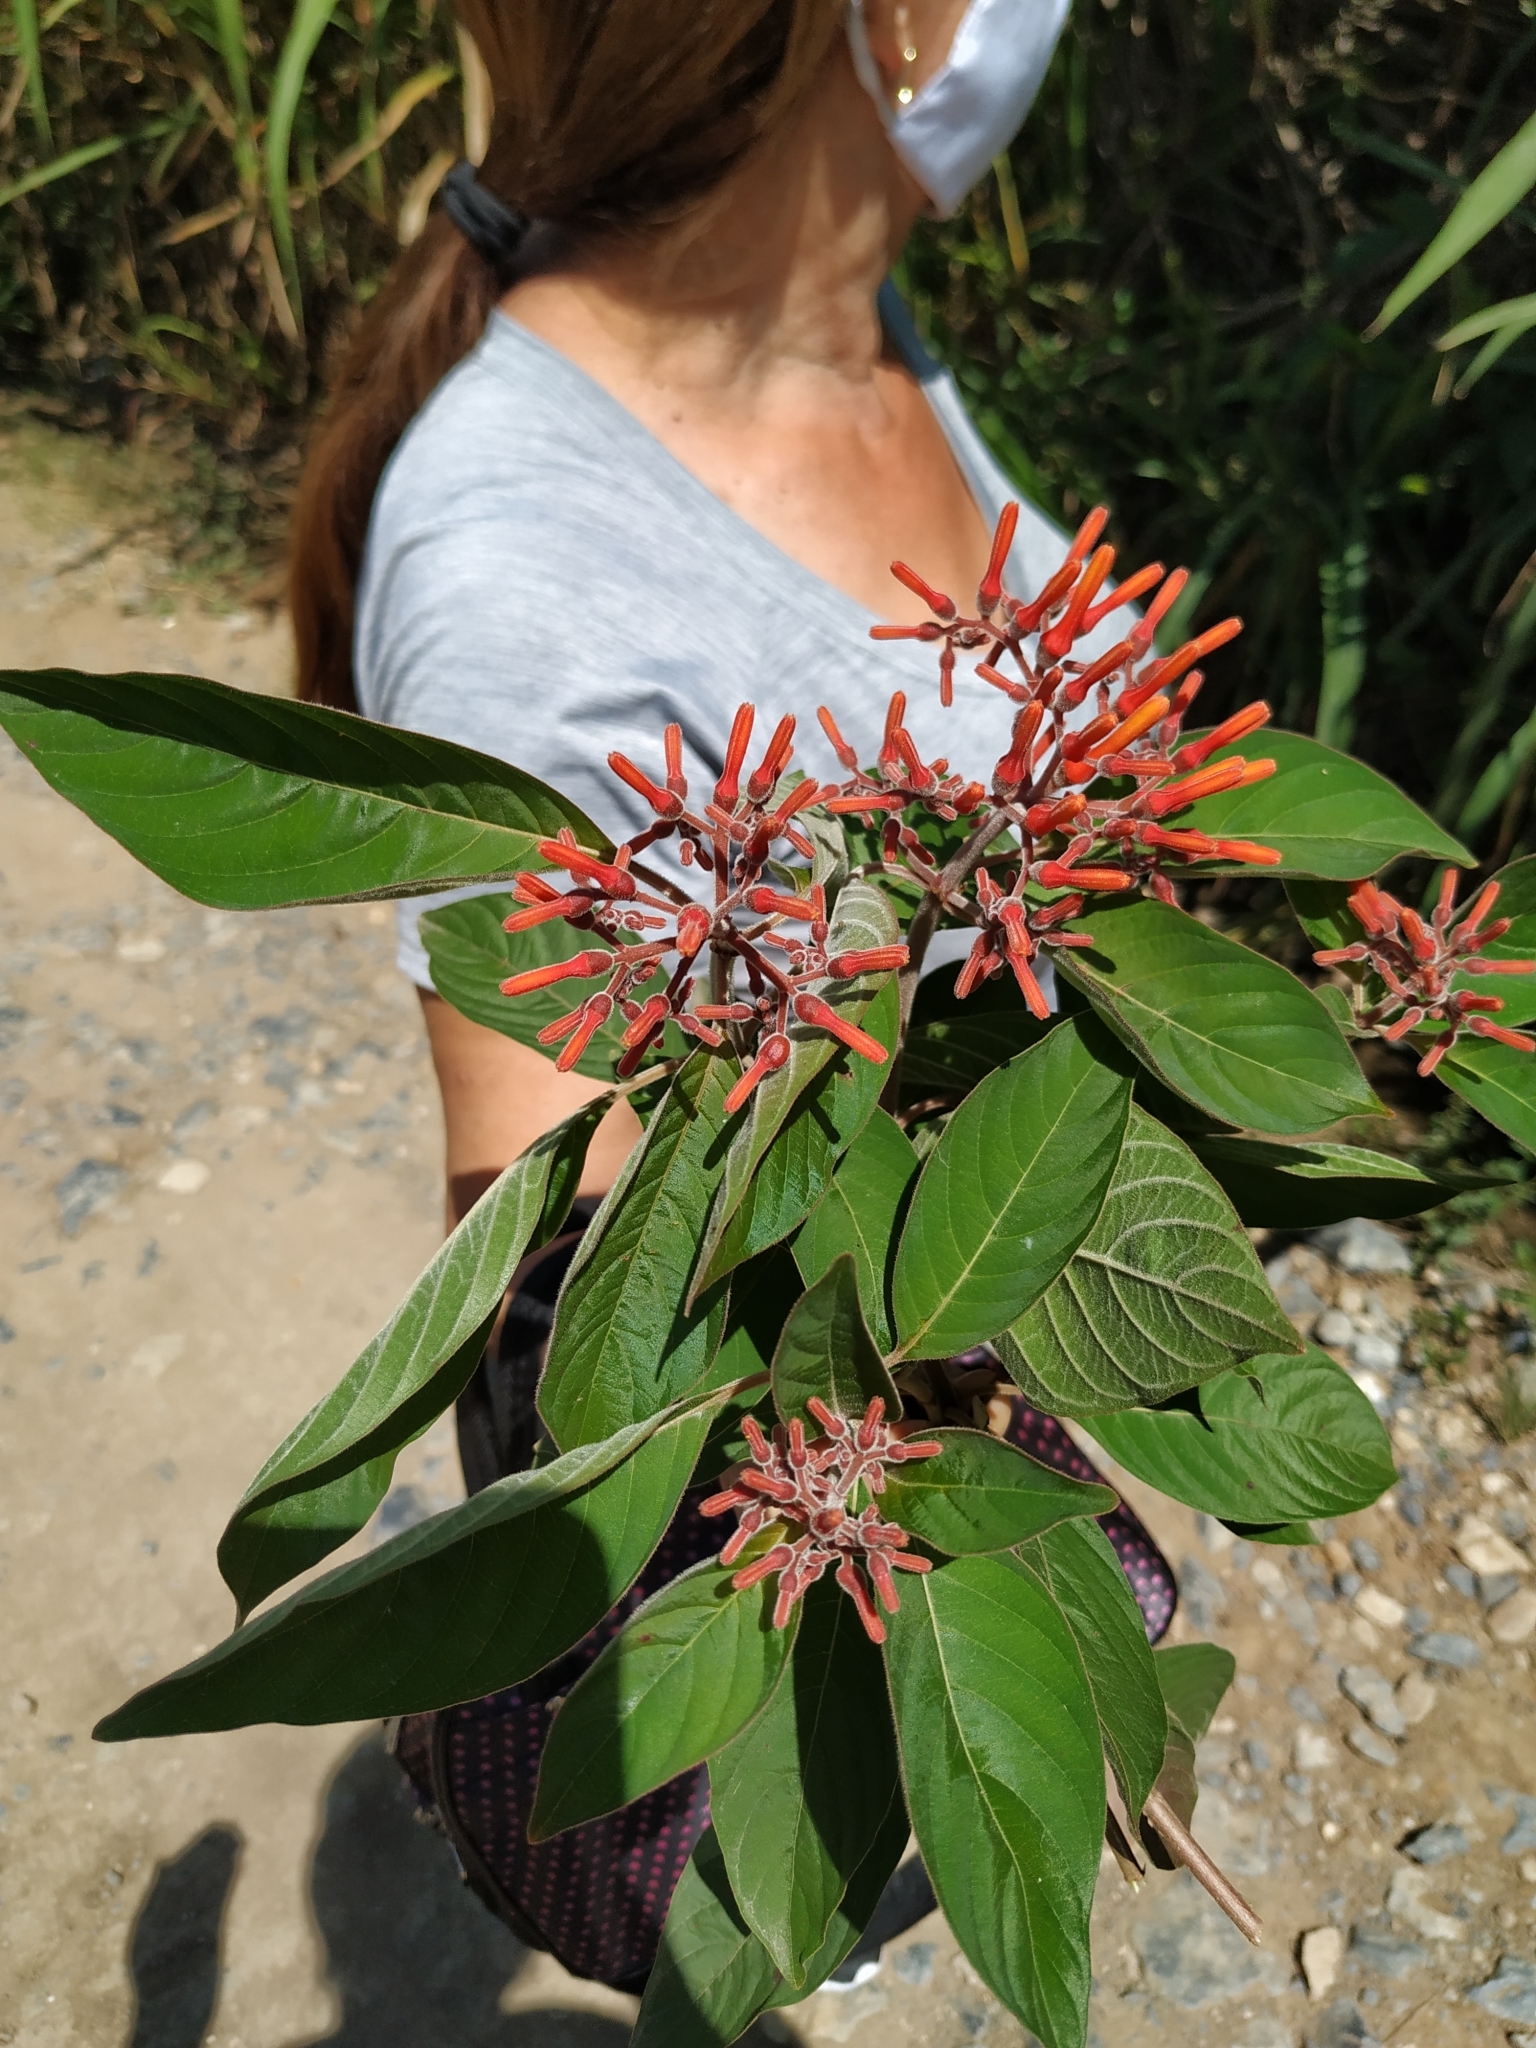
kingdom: Plantae
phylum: Tracheophyta
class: Magnoliopsida
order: Gentianales
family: Rubiaceae
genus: Hamelia
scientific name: Hamelia patens
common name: Redhead
